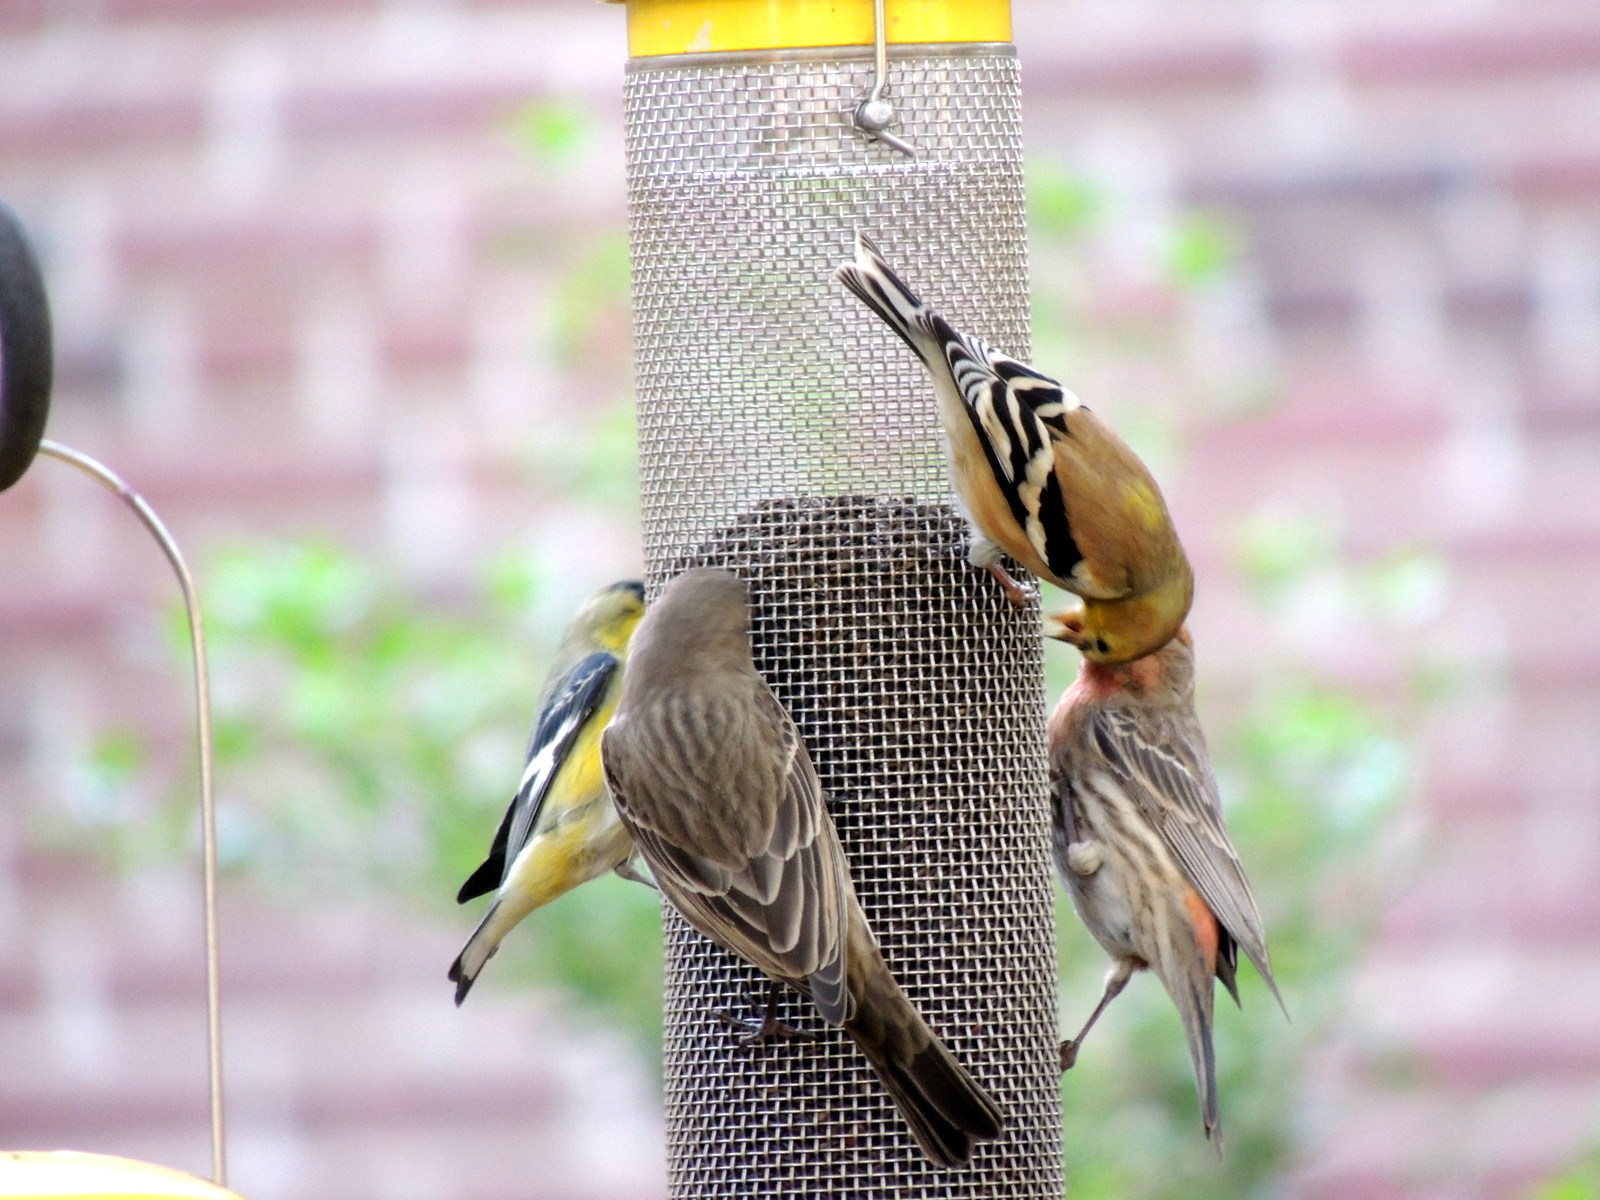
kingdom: Animalia
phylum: Chordata
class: Aves
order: Passeriformes
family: Fringillidae
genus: Spinus
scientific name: Spinus psaltria
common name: Lesser goldfinch
